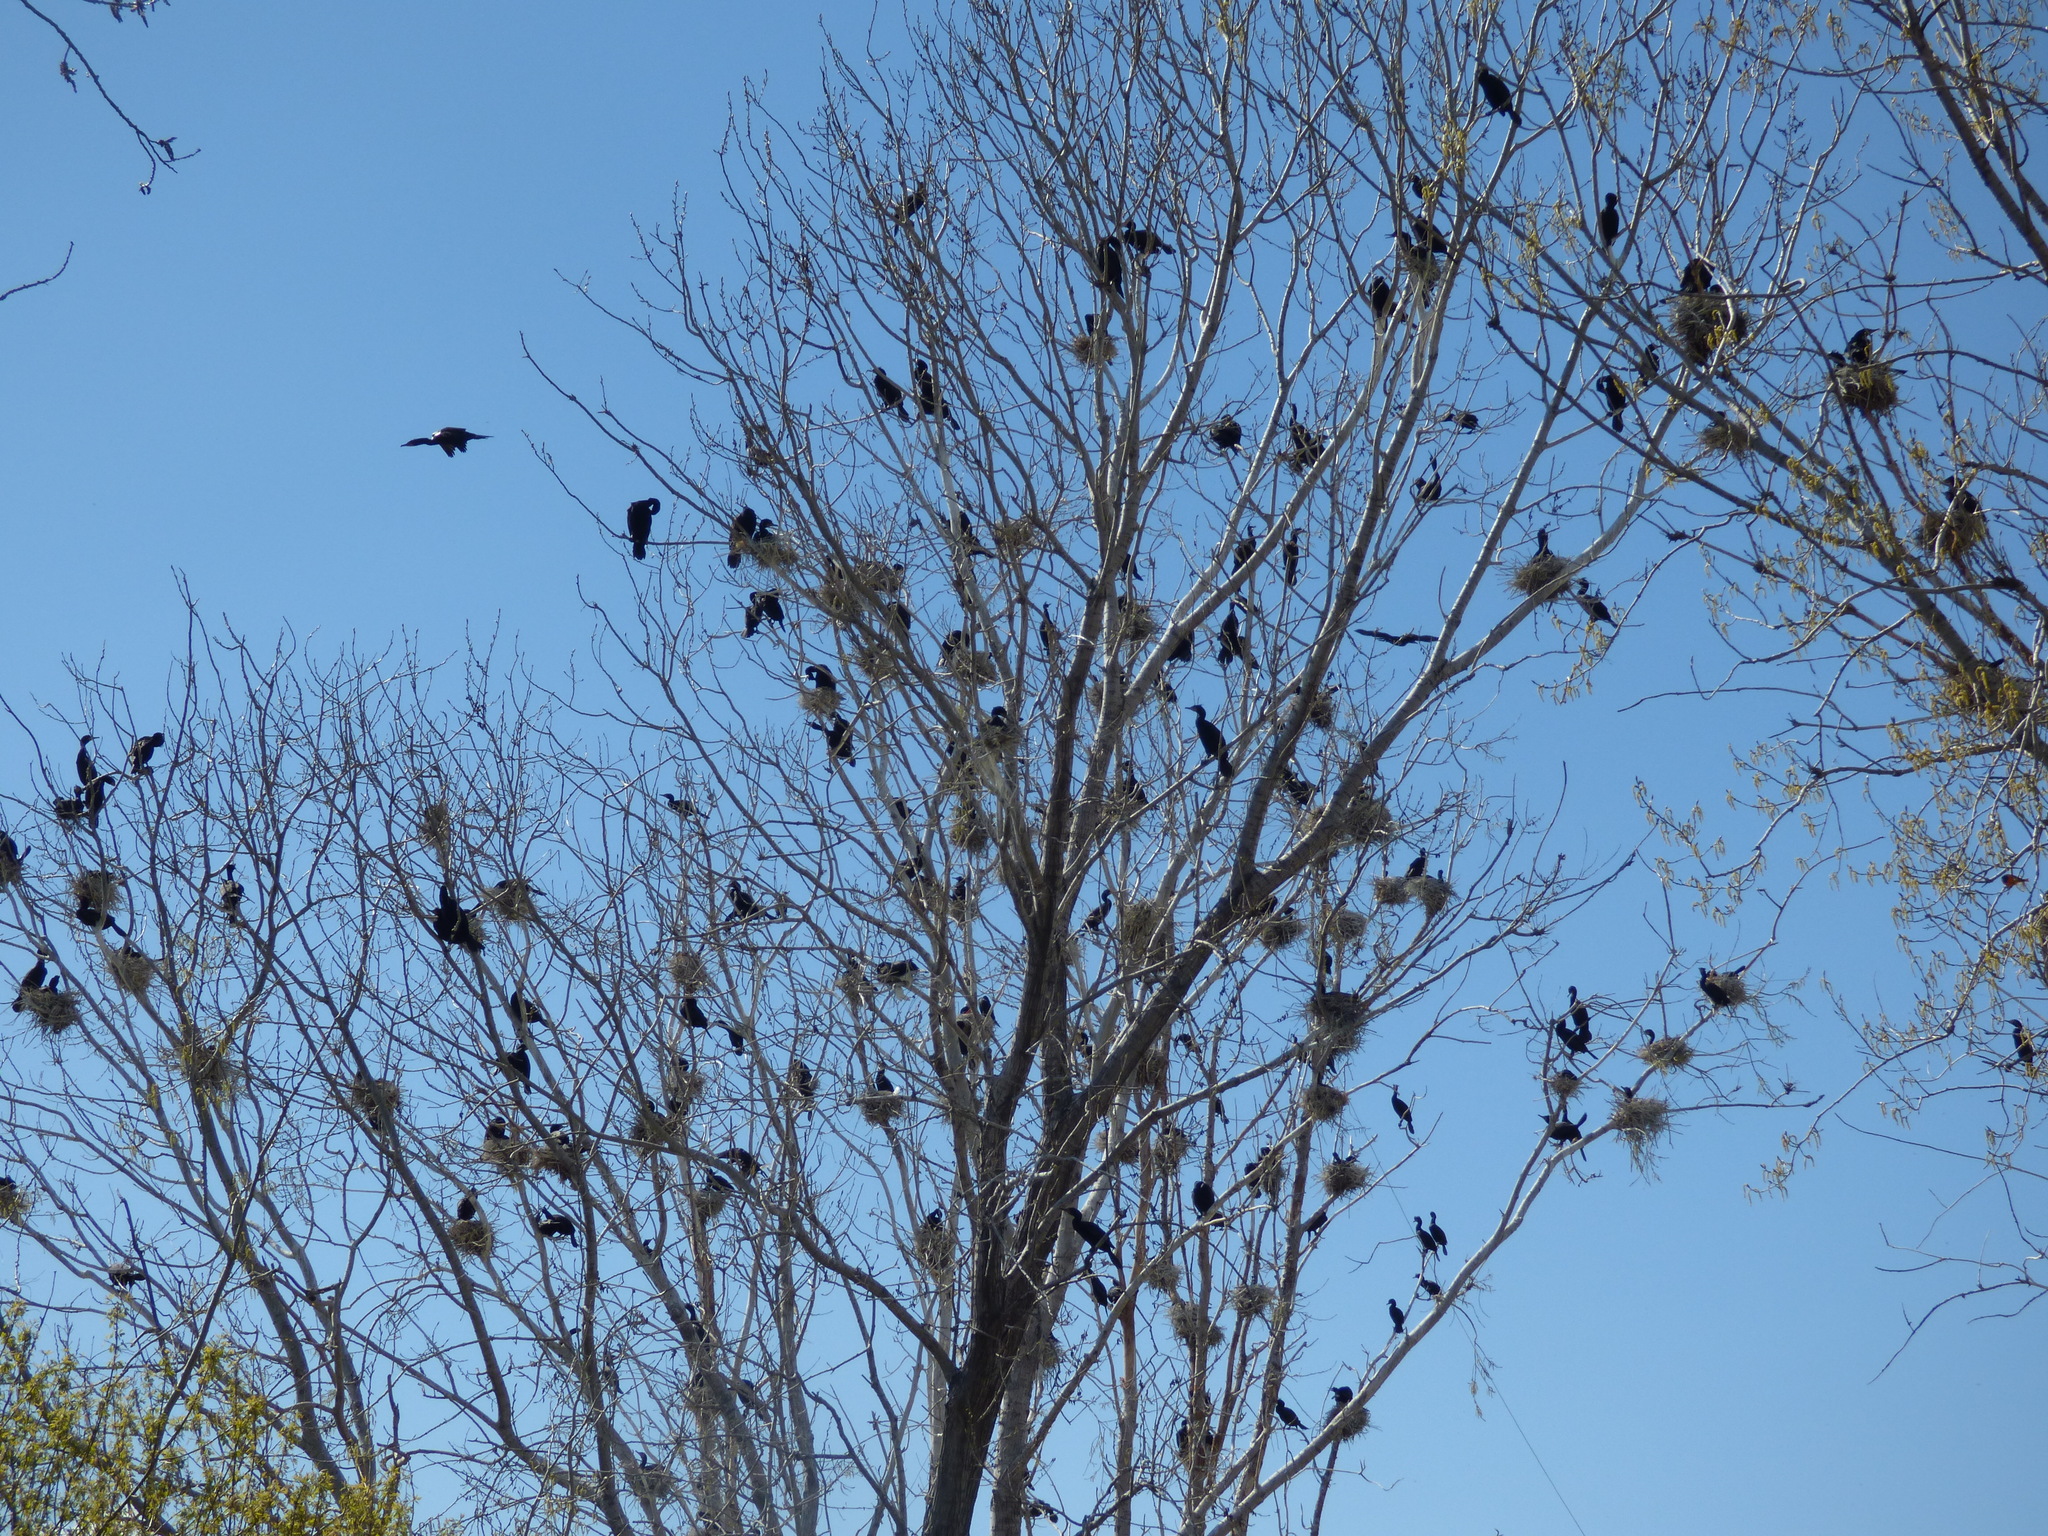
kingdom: Animalia
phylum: Chordata
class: Aves
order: Suliformes
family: Phalacrocoracidae
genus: Phalacrocorax
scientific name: Phalacrocorax auritus
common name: Double-crested cormorant
